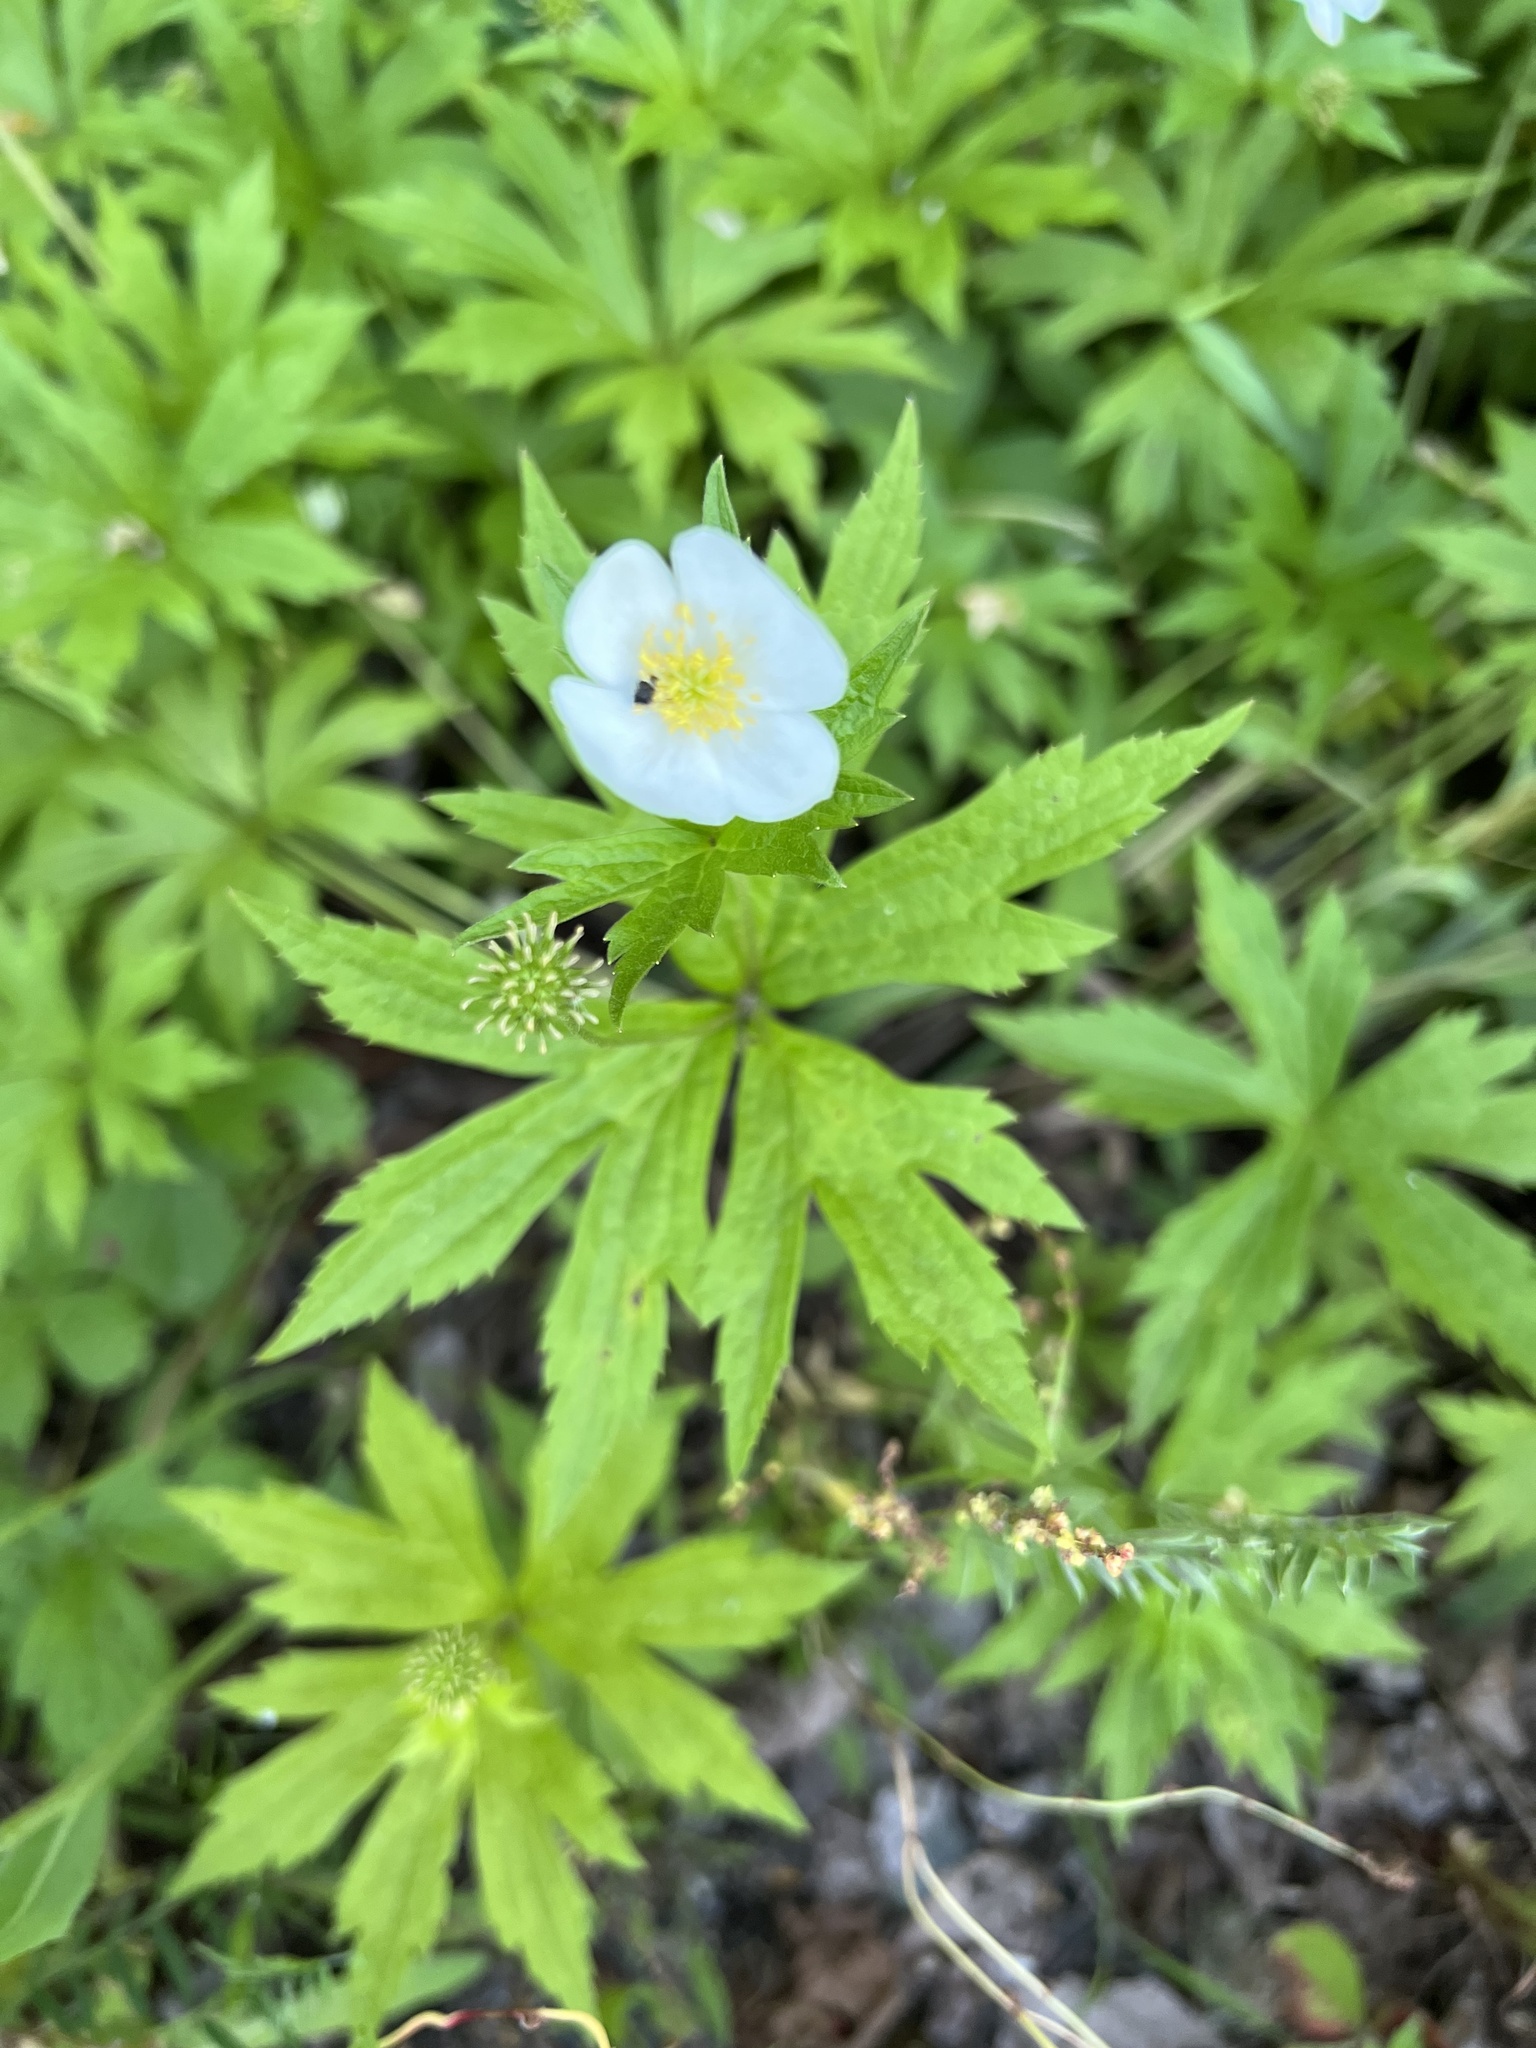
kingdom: Plantae
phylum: Tracheophyta
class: Magnoliopsida
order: Ranunculales
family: Ranunculaceae
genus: Anemonastrum
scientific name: Anemonastrum canadense
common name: Canada anemone
